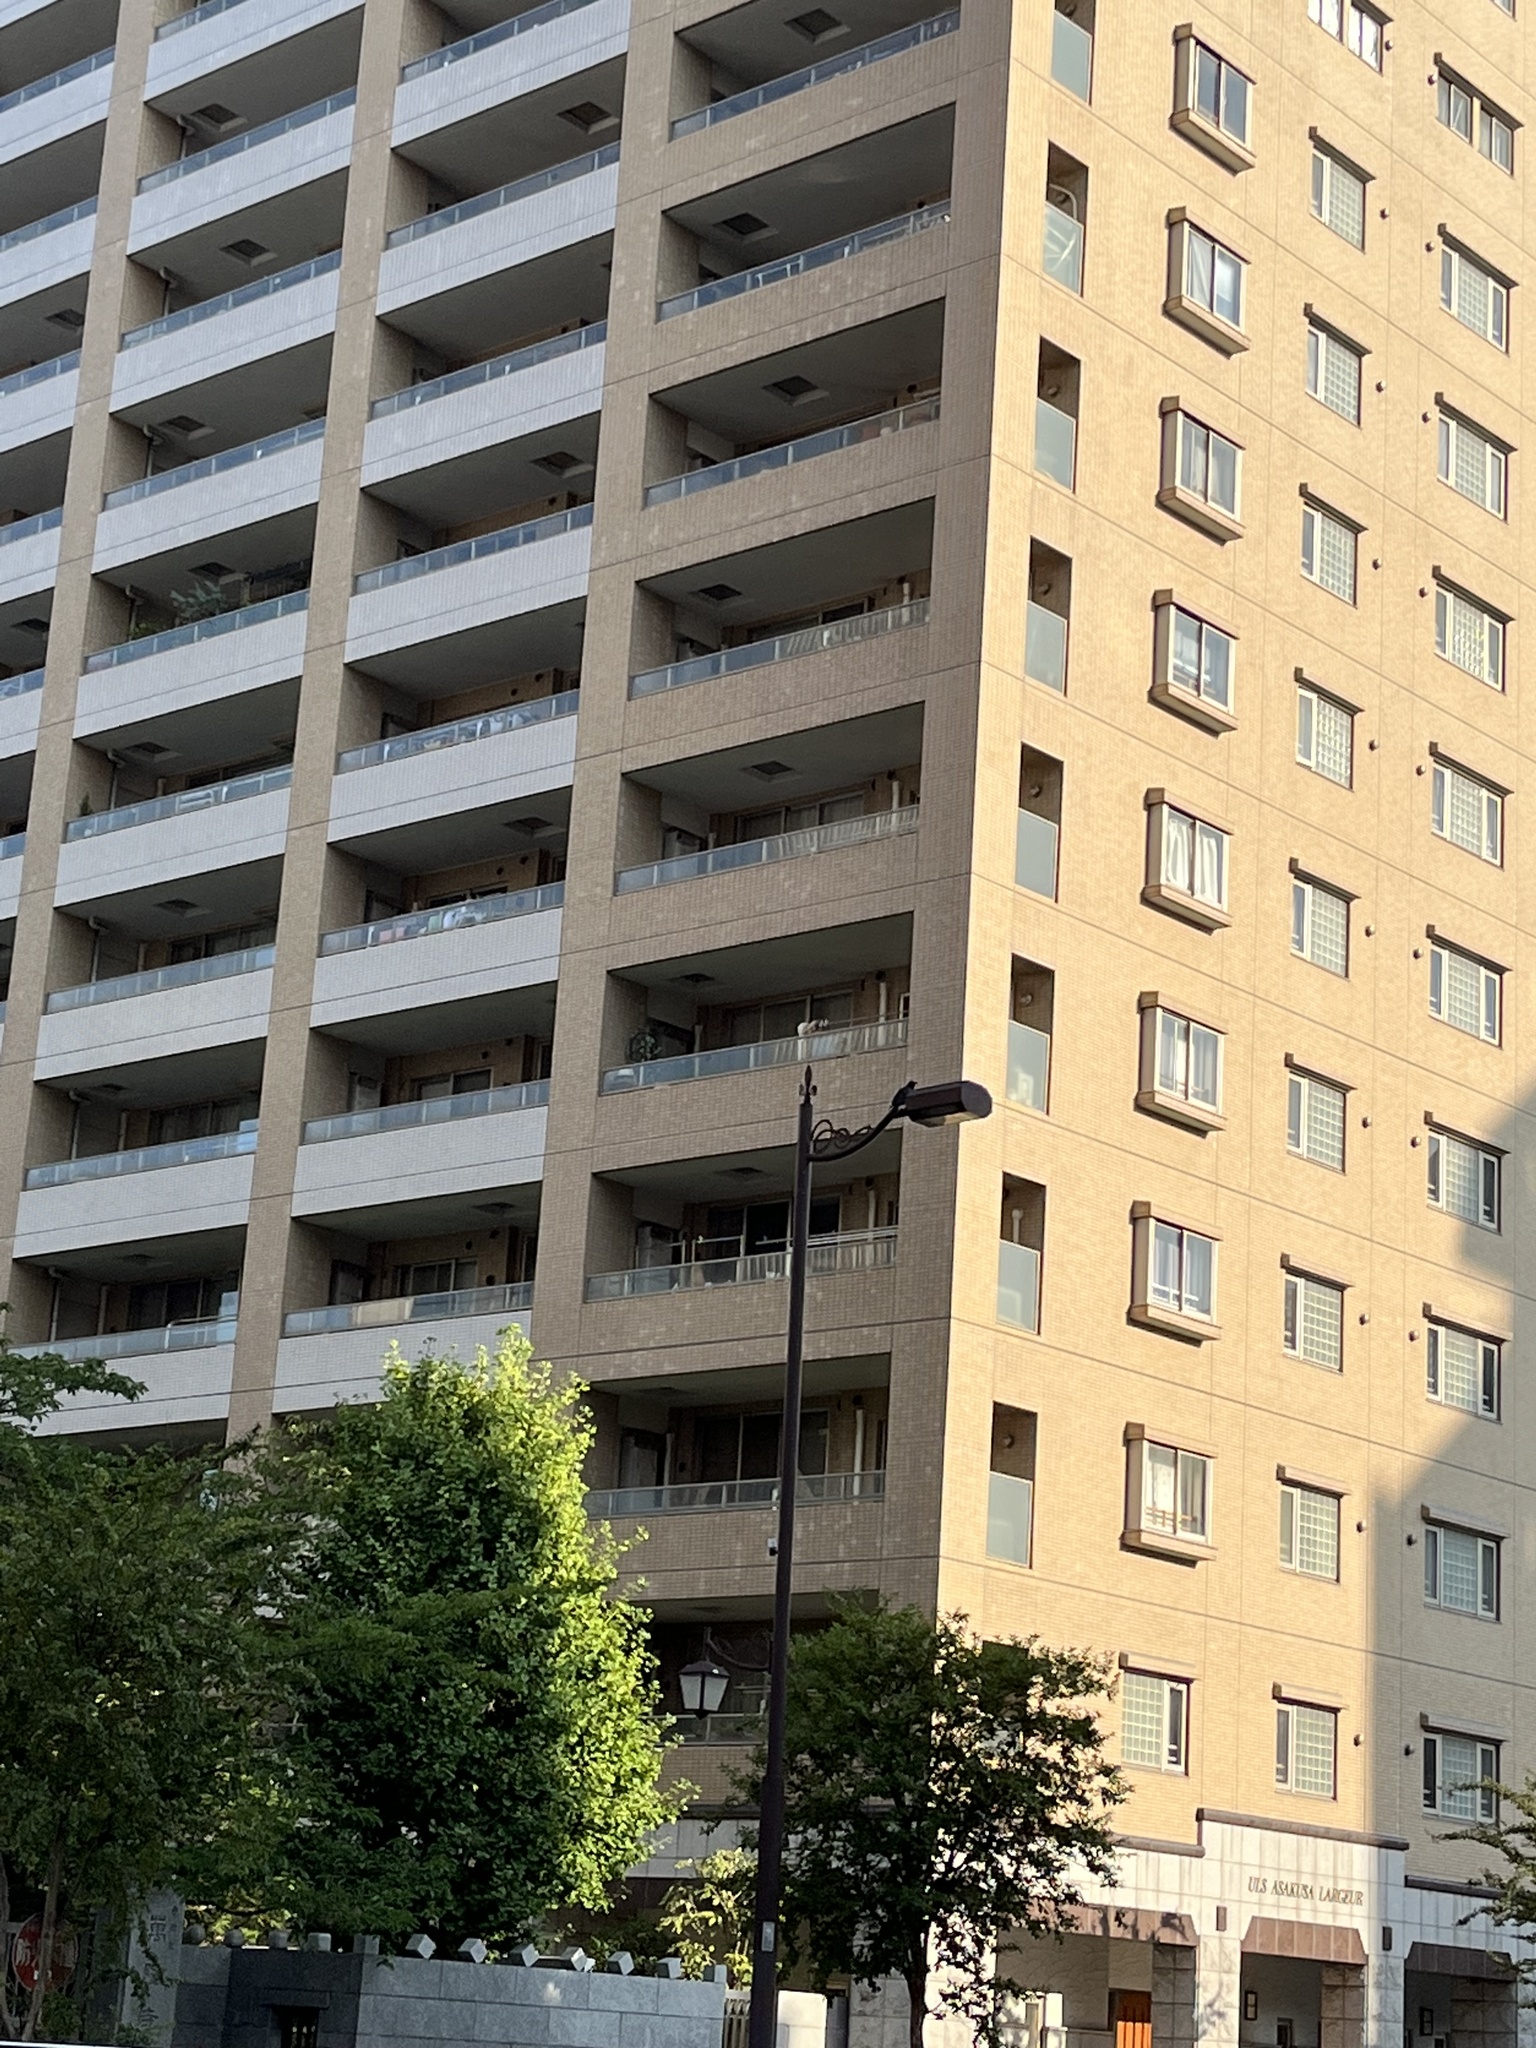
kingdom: Animalia
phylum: Chordata
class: Aves
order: Passeriformes
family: Corvidae
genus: Corvus
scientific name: Corvus macrorhynchos
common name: Large-billed crow
